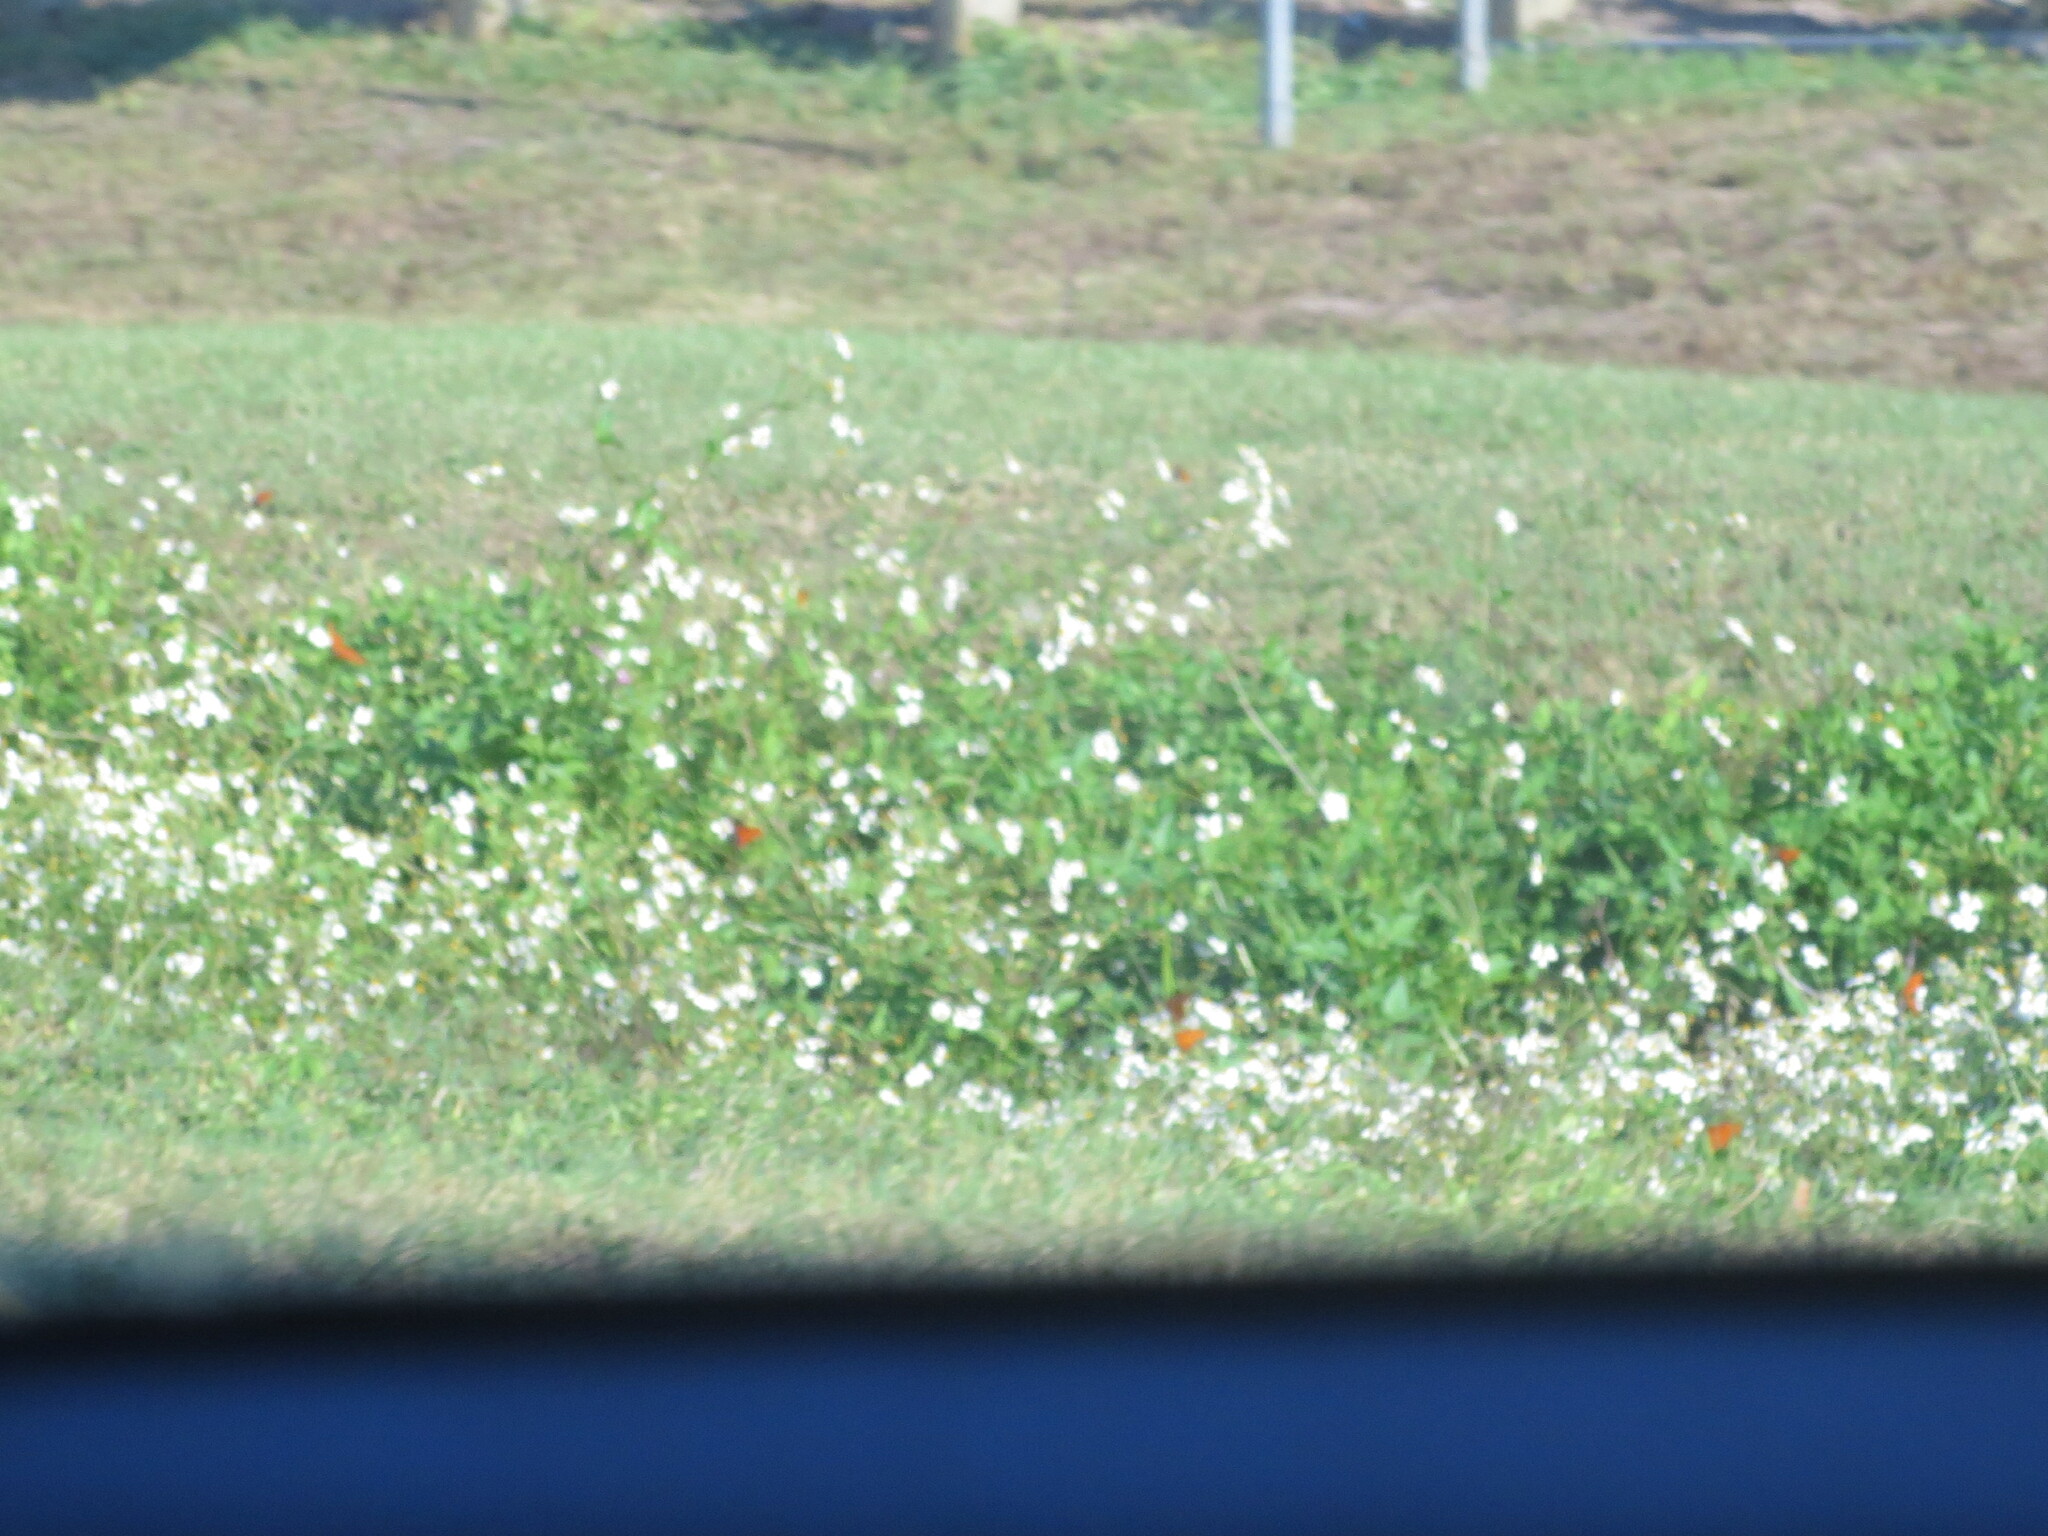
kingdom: Animalia
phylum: Arthropoda
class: Insecta
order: Lepidoptera
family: Nymphalidae
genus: Dione
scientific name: Dione vanillae
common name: Gulf fritillary
